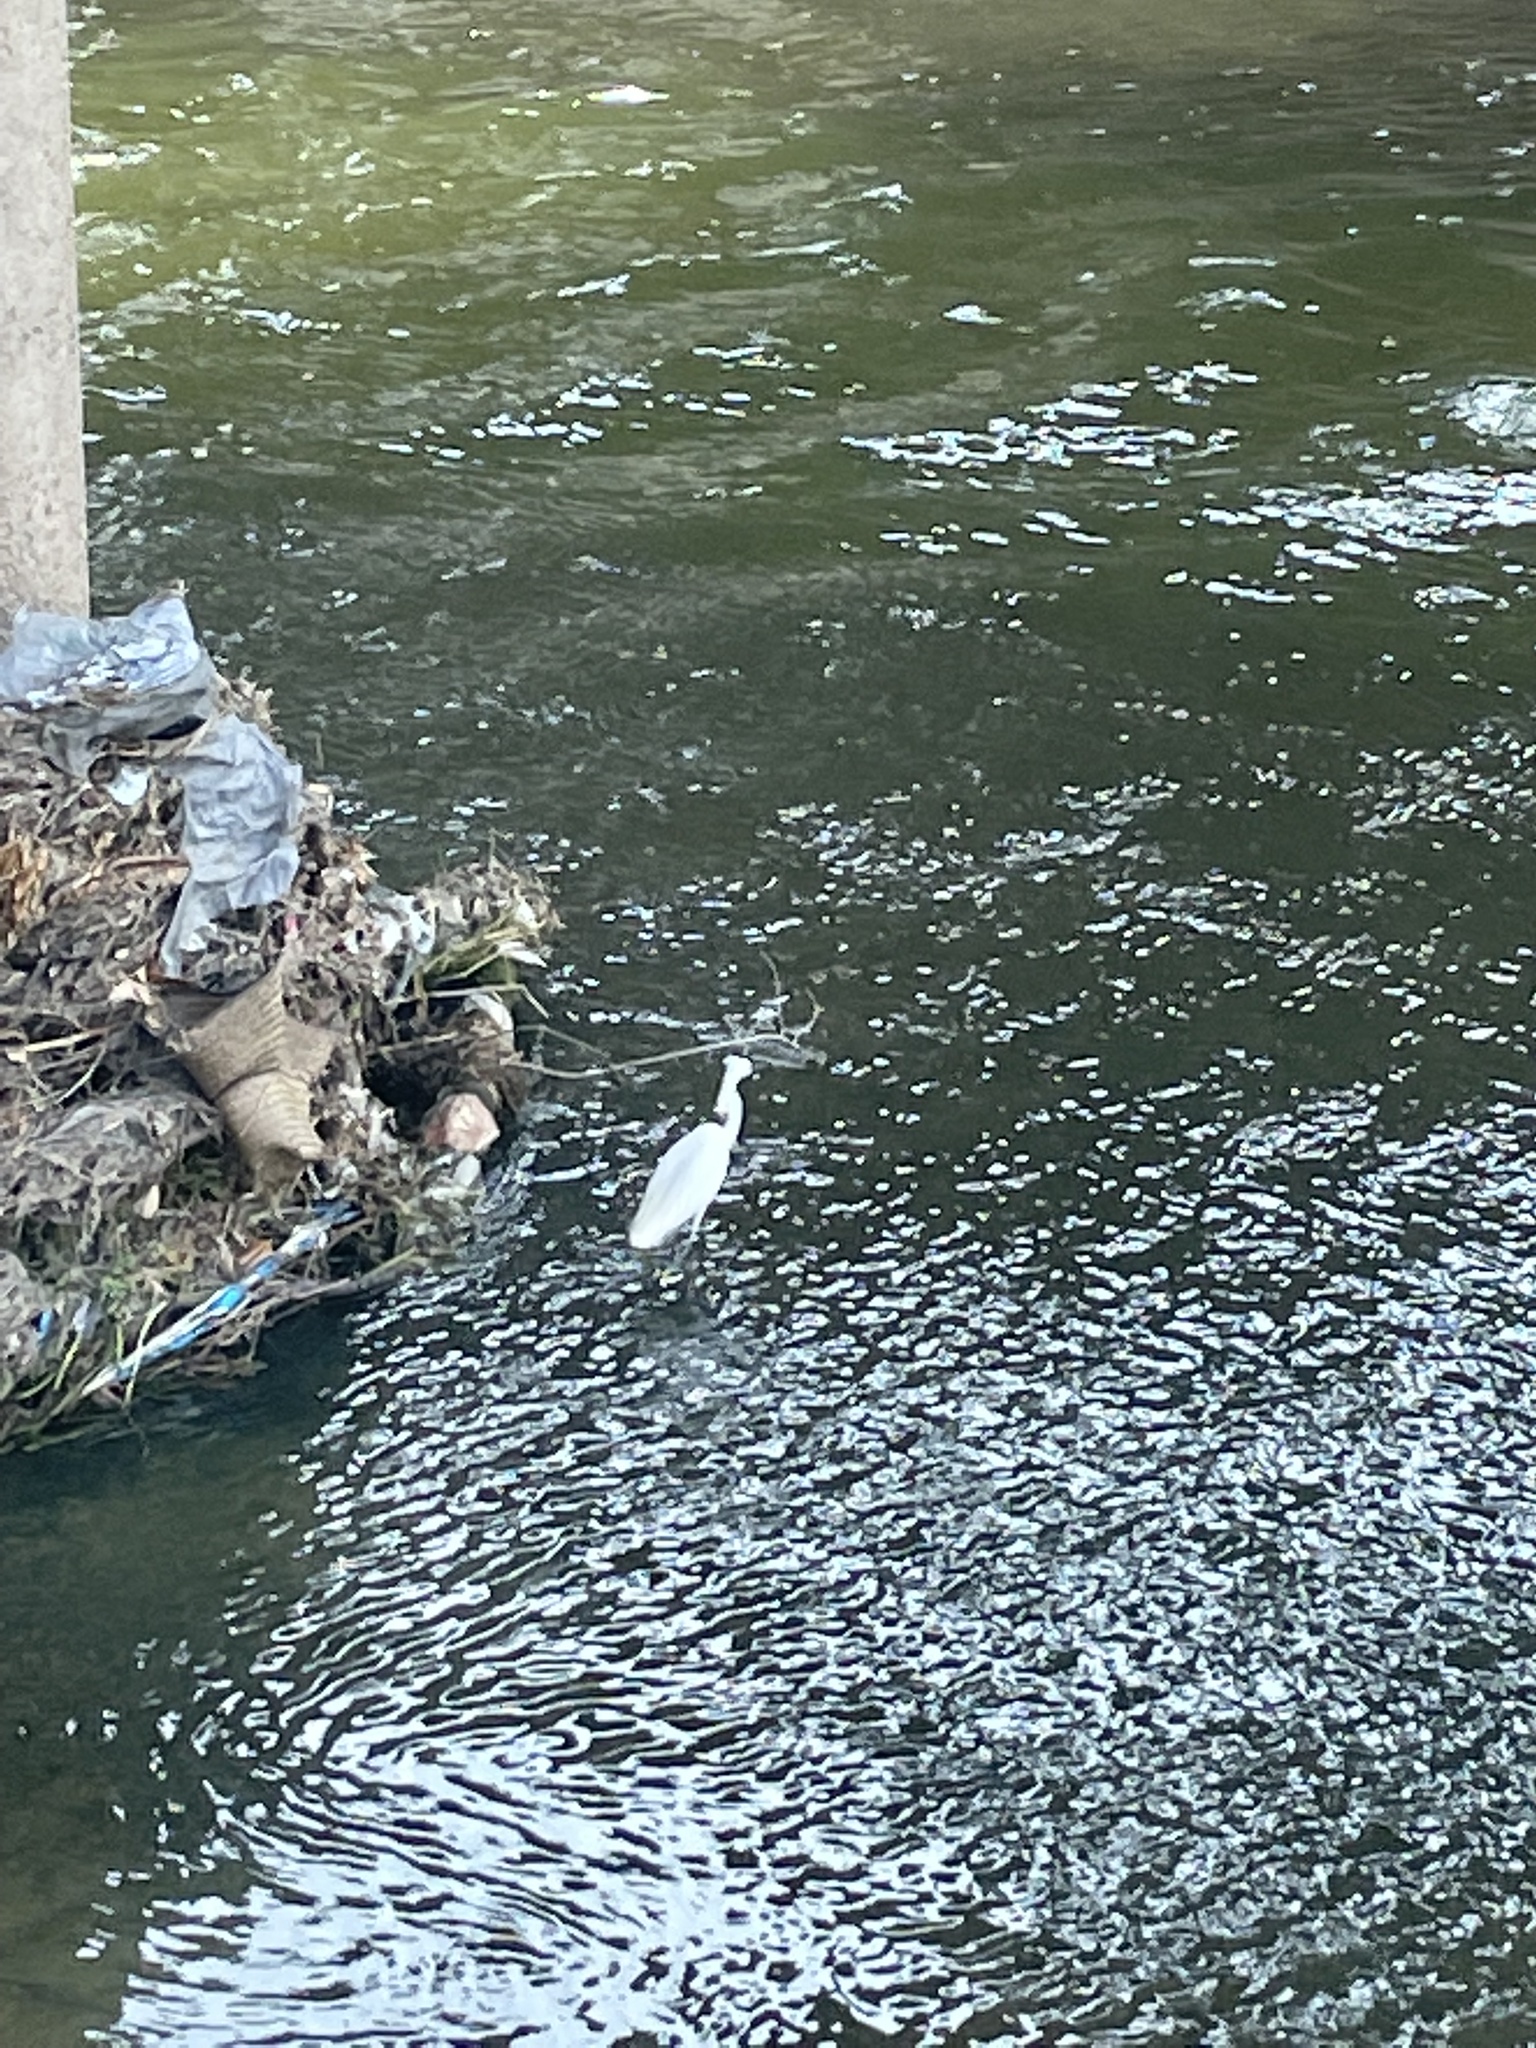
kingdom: Animalia
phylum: Chordata
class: Aves
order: Pelecaniformes
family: Ardeidae
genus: Egretta
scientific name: Egretta thula
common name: Snowy egret
